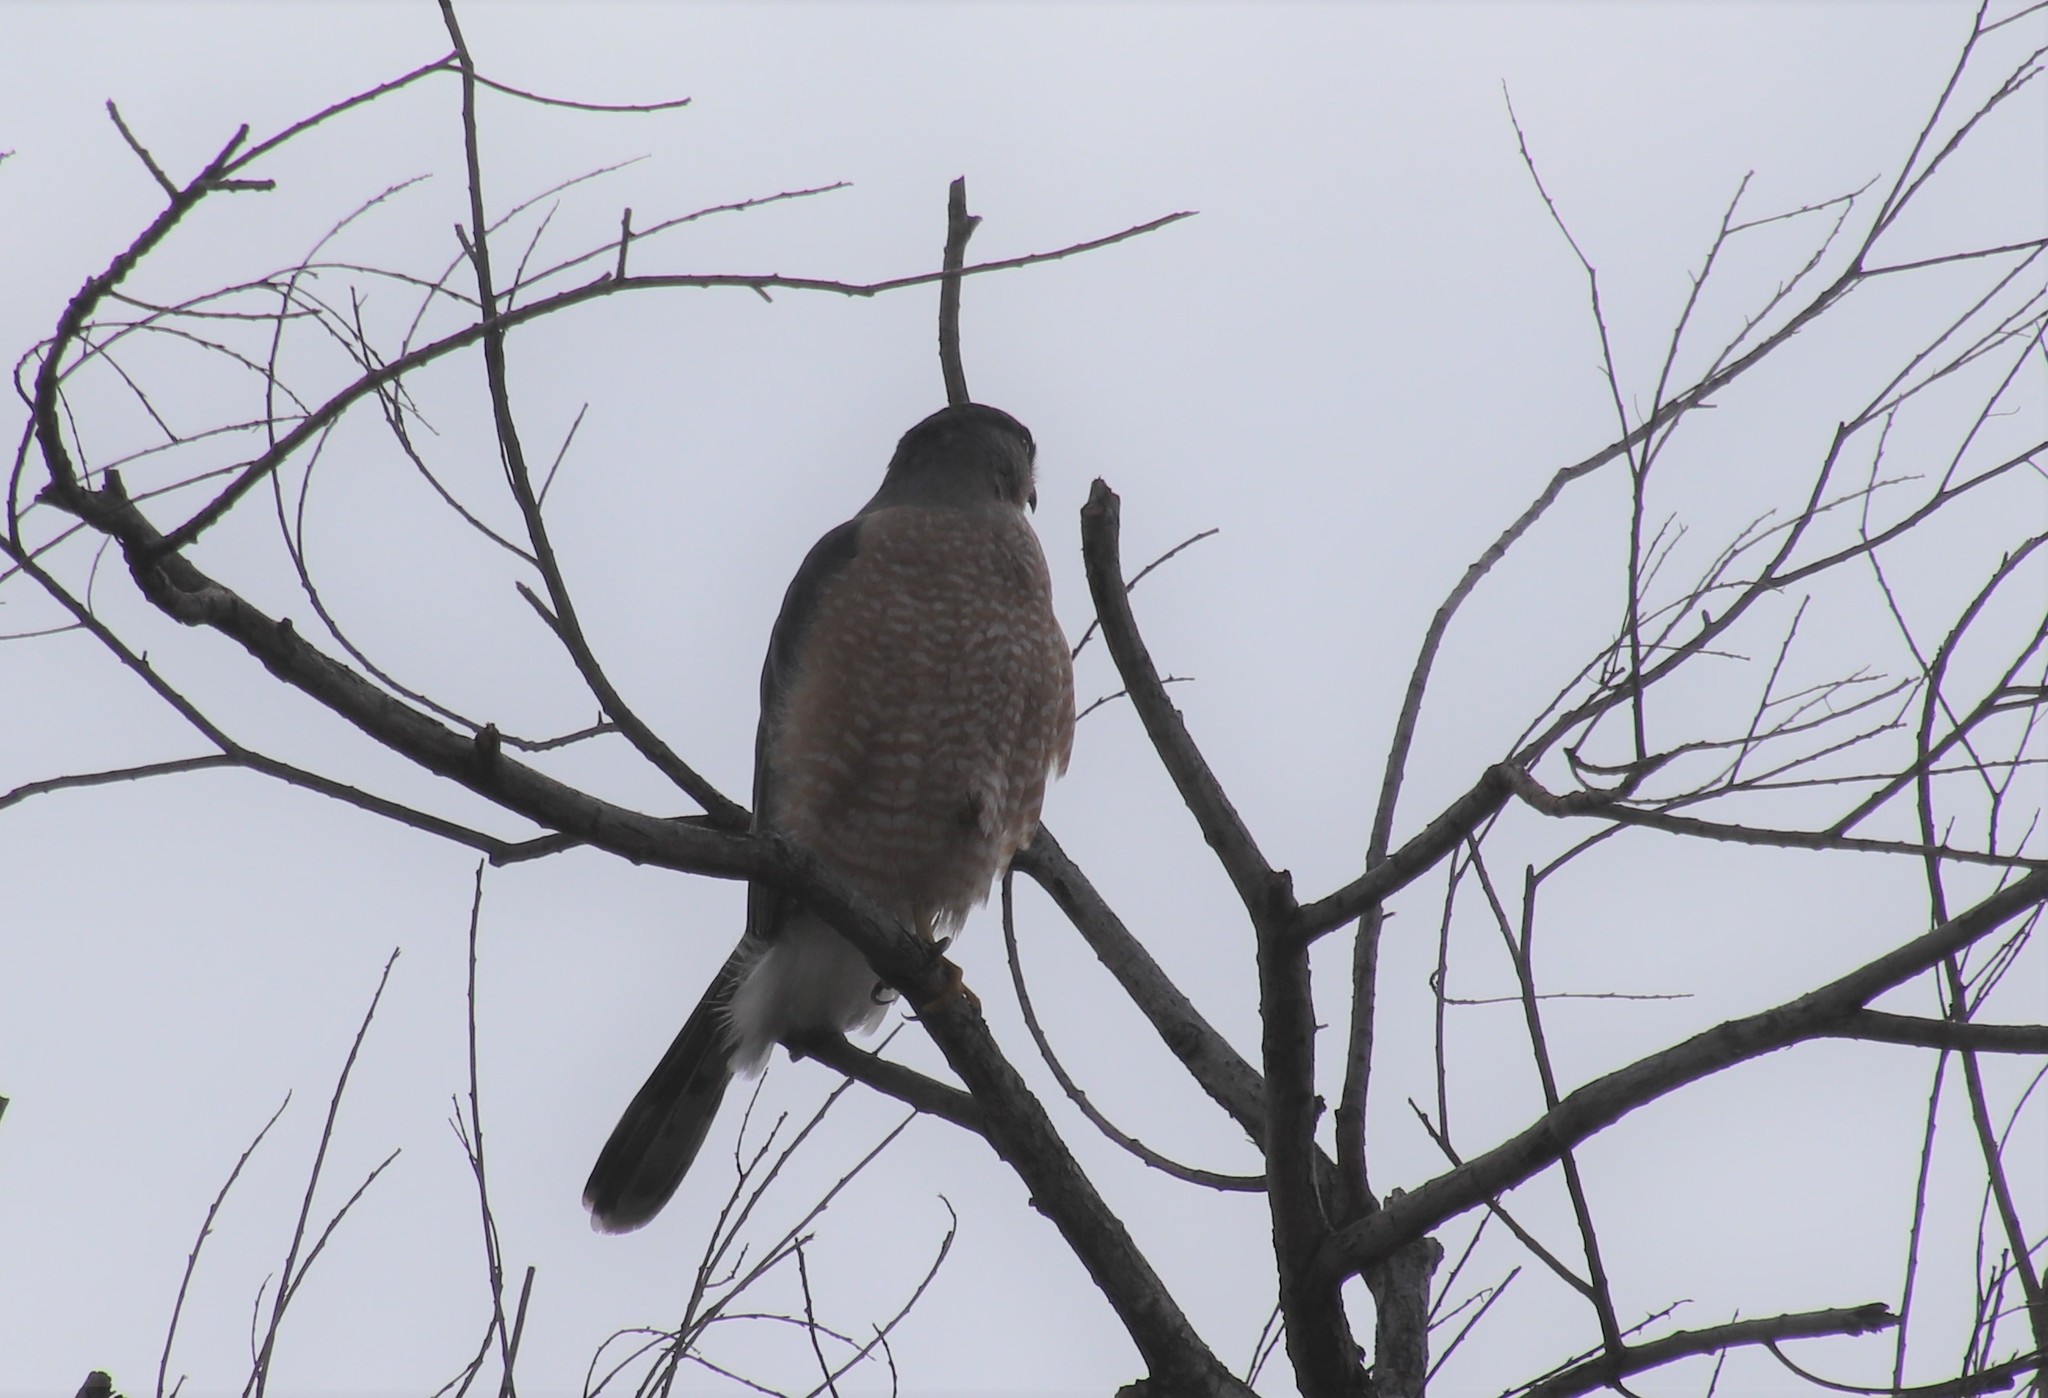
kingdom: Animalia
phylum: Chordata
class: Aves
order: Accipitriformes
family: Accipitridae
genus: Accipiter
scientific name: Accipiter cooperii
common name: Cooper's hawk
